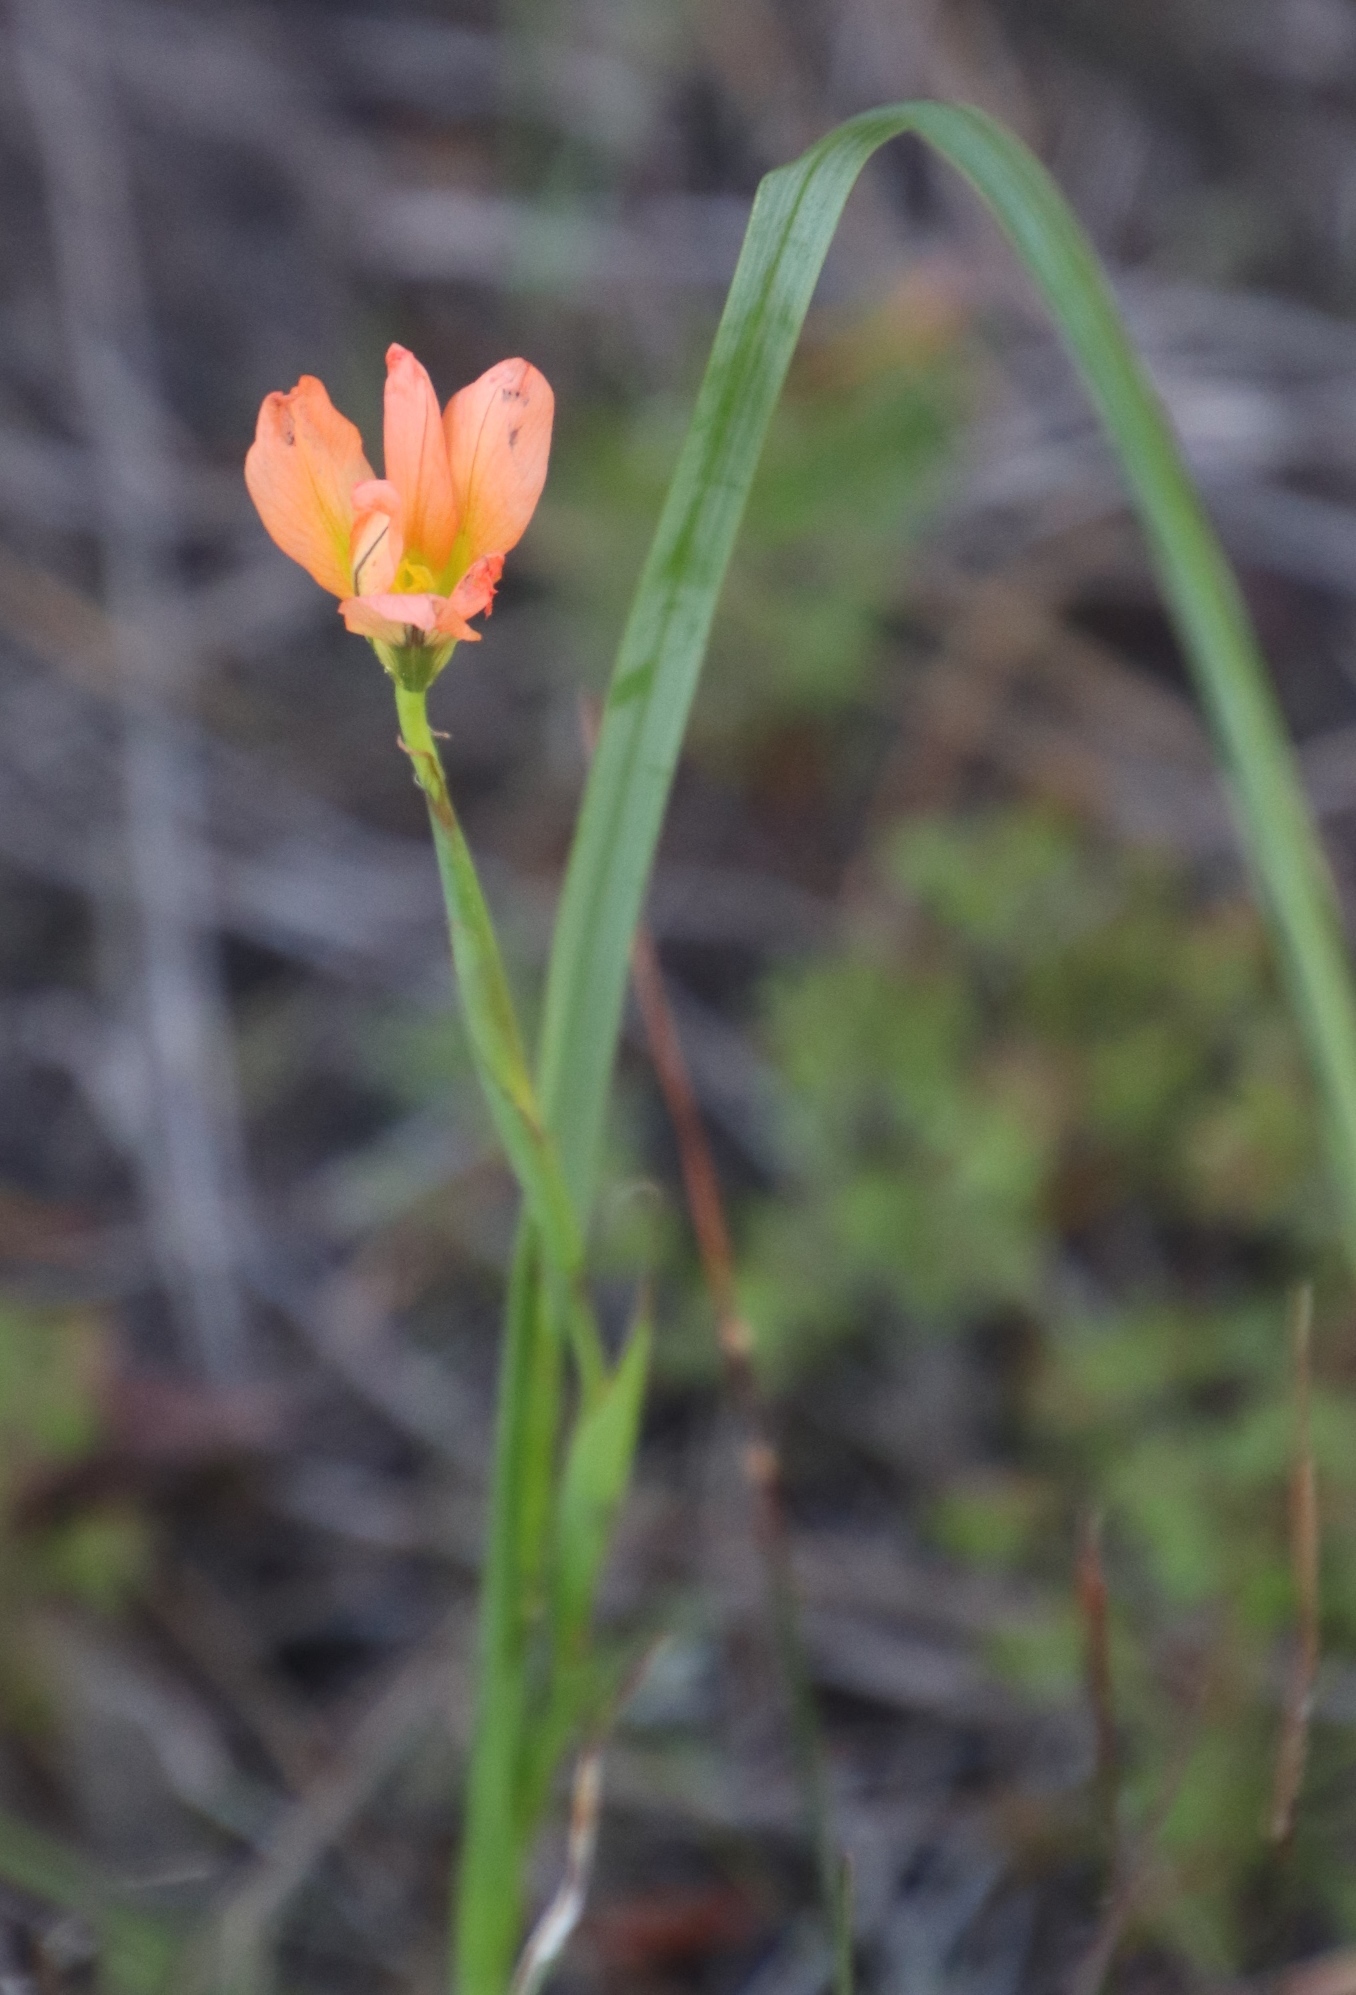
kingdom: Plantae
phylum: Tracheophyta
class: Liliopsida
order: Asparagales
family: Iridaceae
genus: Moraea
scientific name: Moraea flaccida
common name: One-leaf cape-tulip
